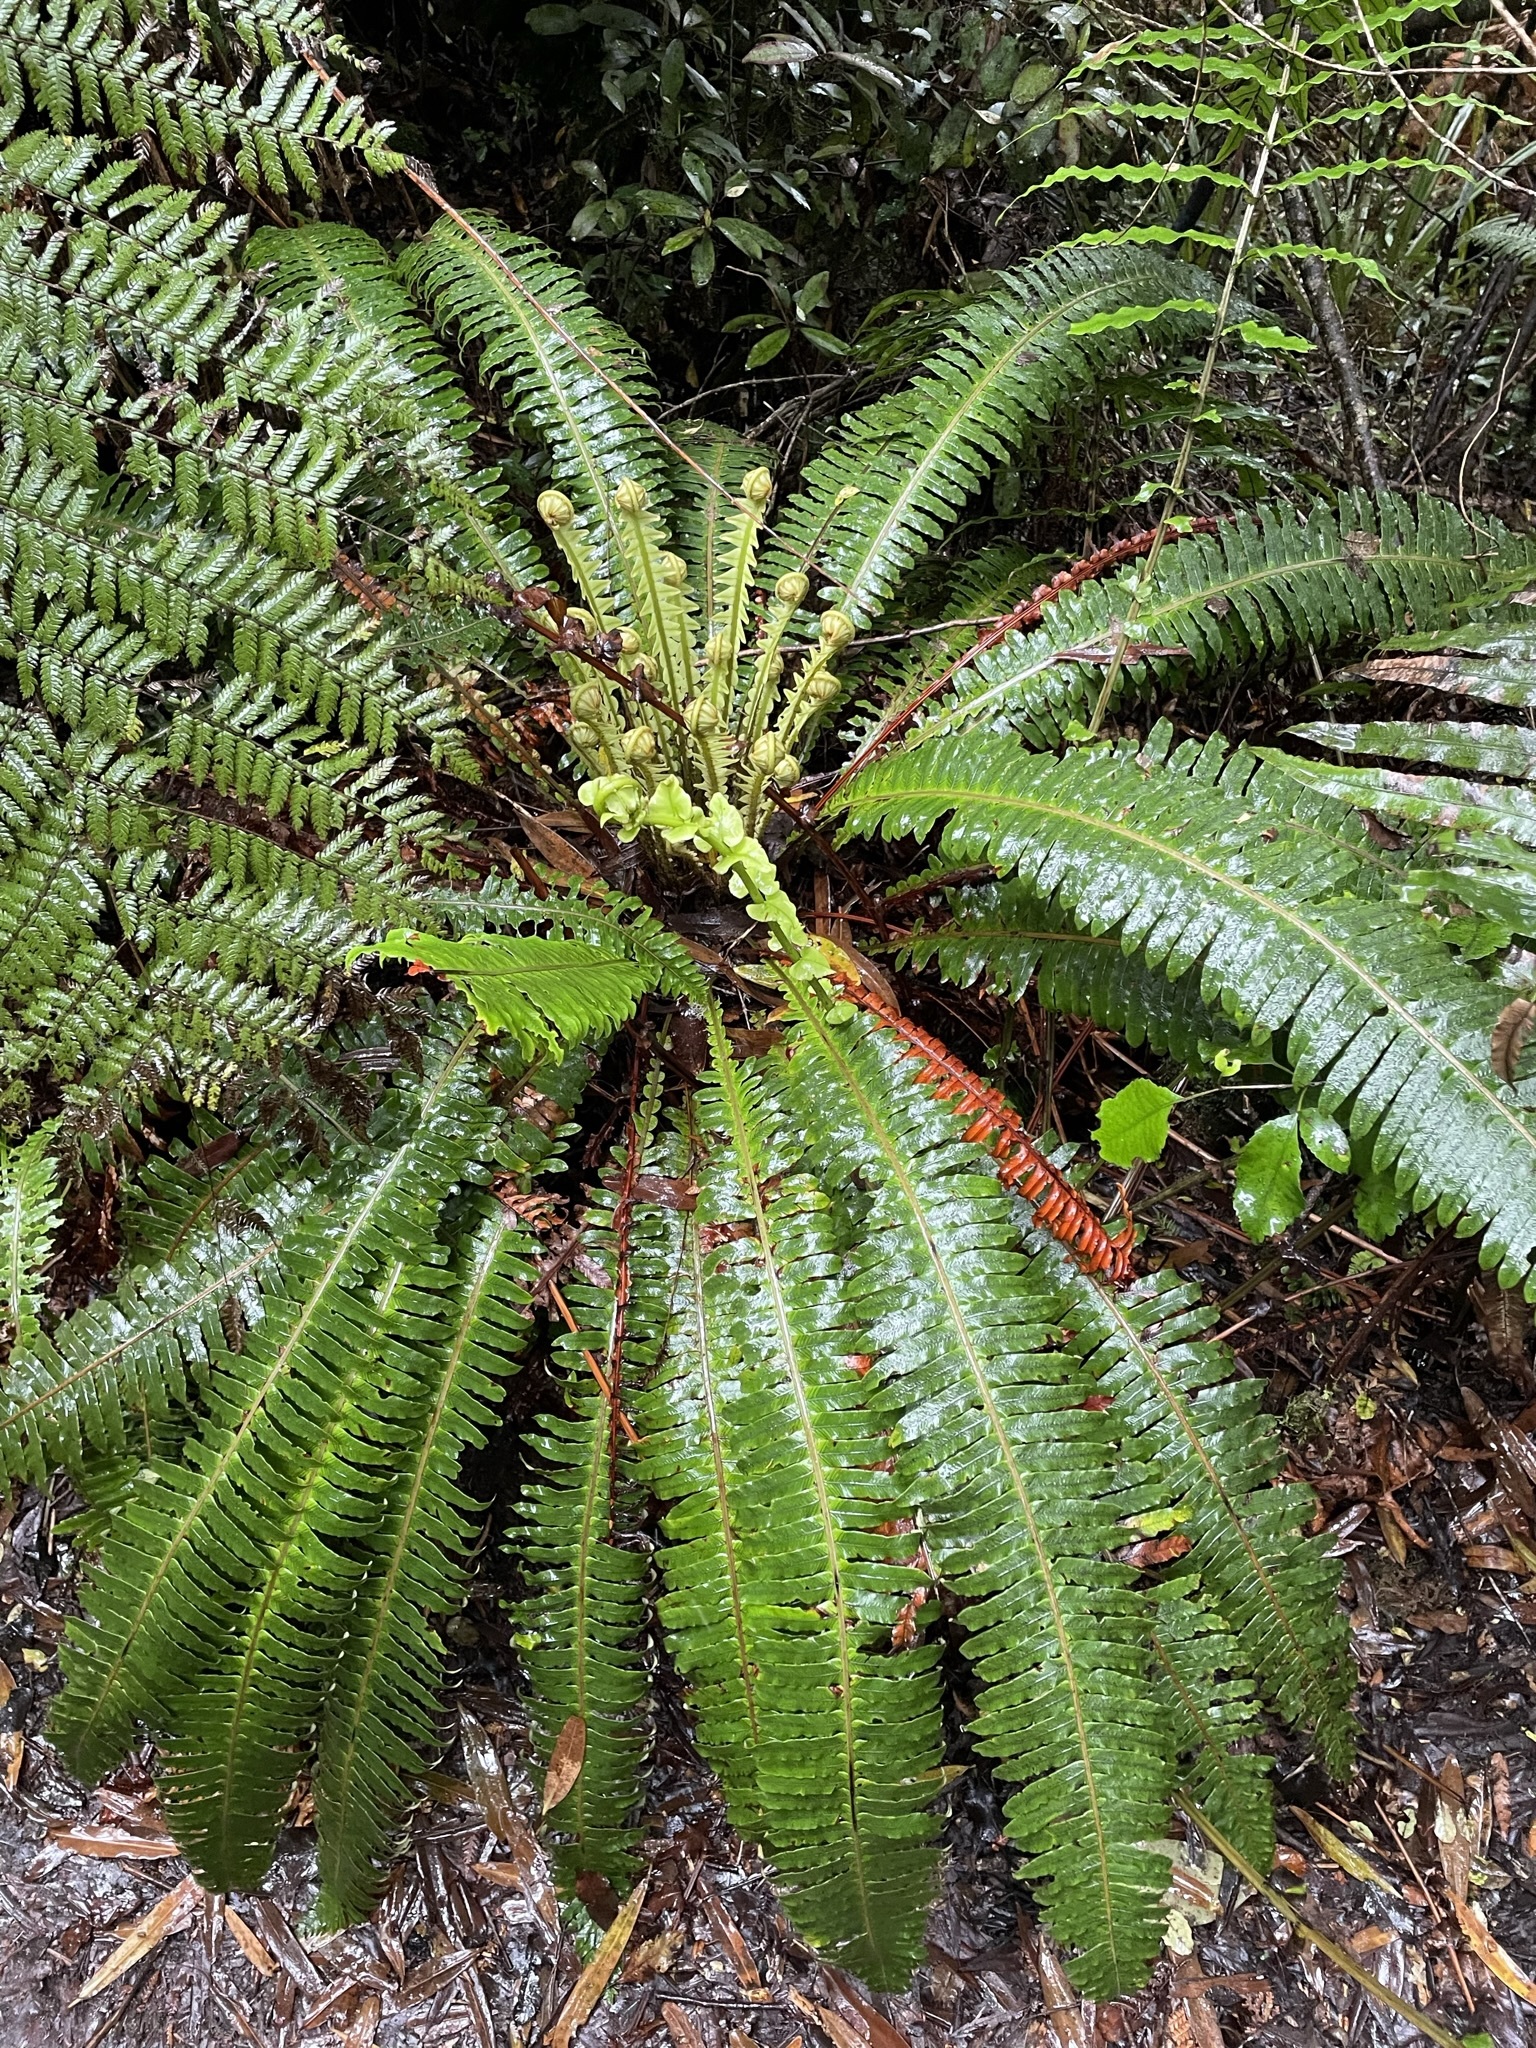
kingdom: Plantae
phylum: Tracheophyta
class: Polypodiopsida
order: Polypodiales
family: Blechnaceae
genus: Lomaria
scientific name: Lomaria discolor
